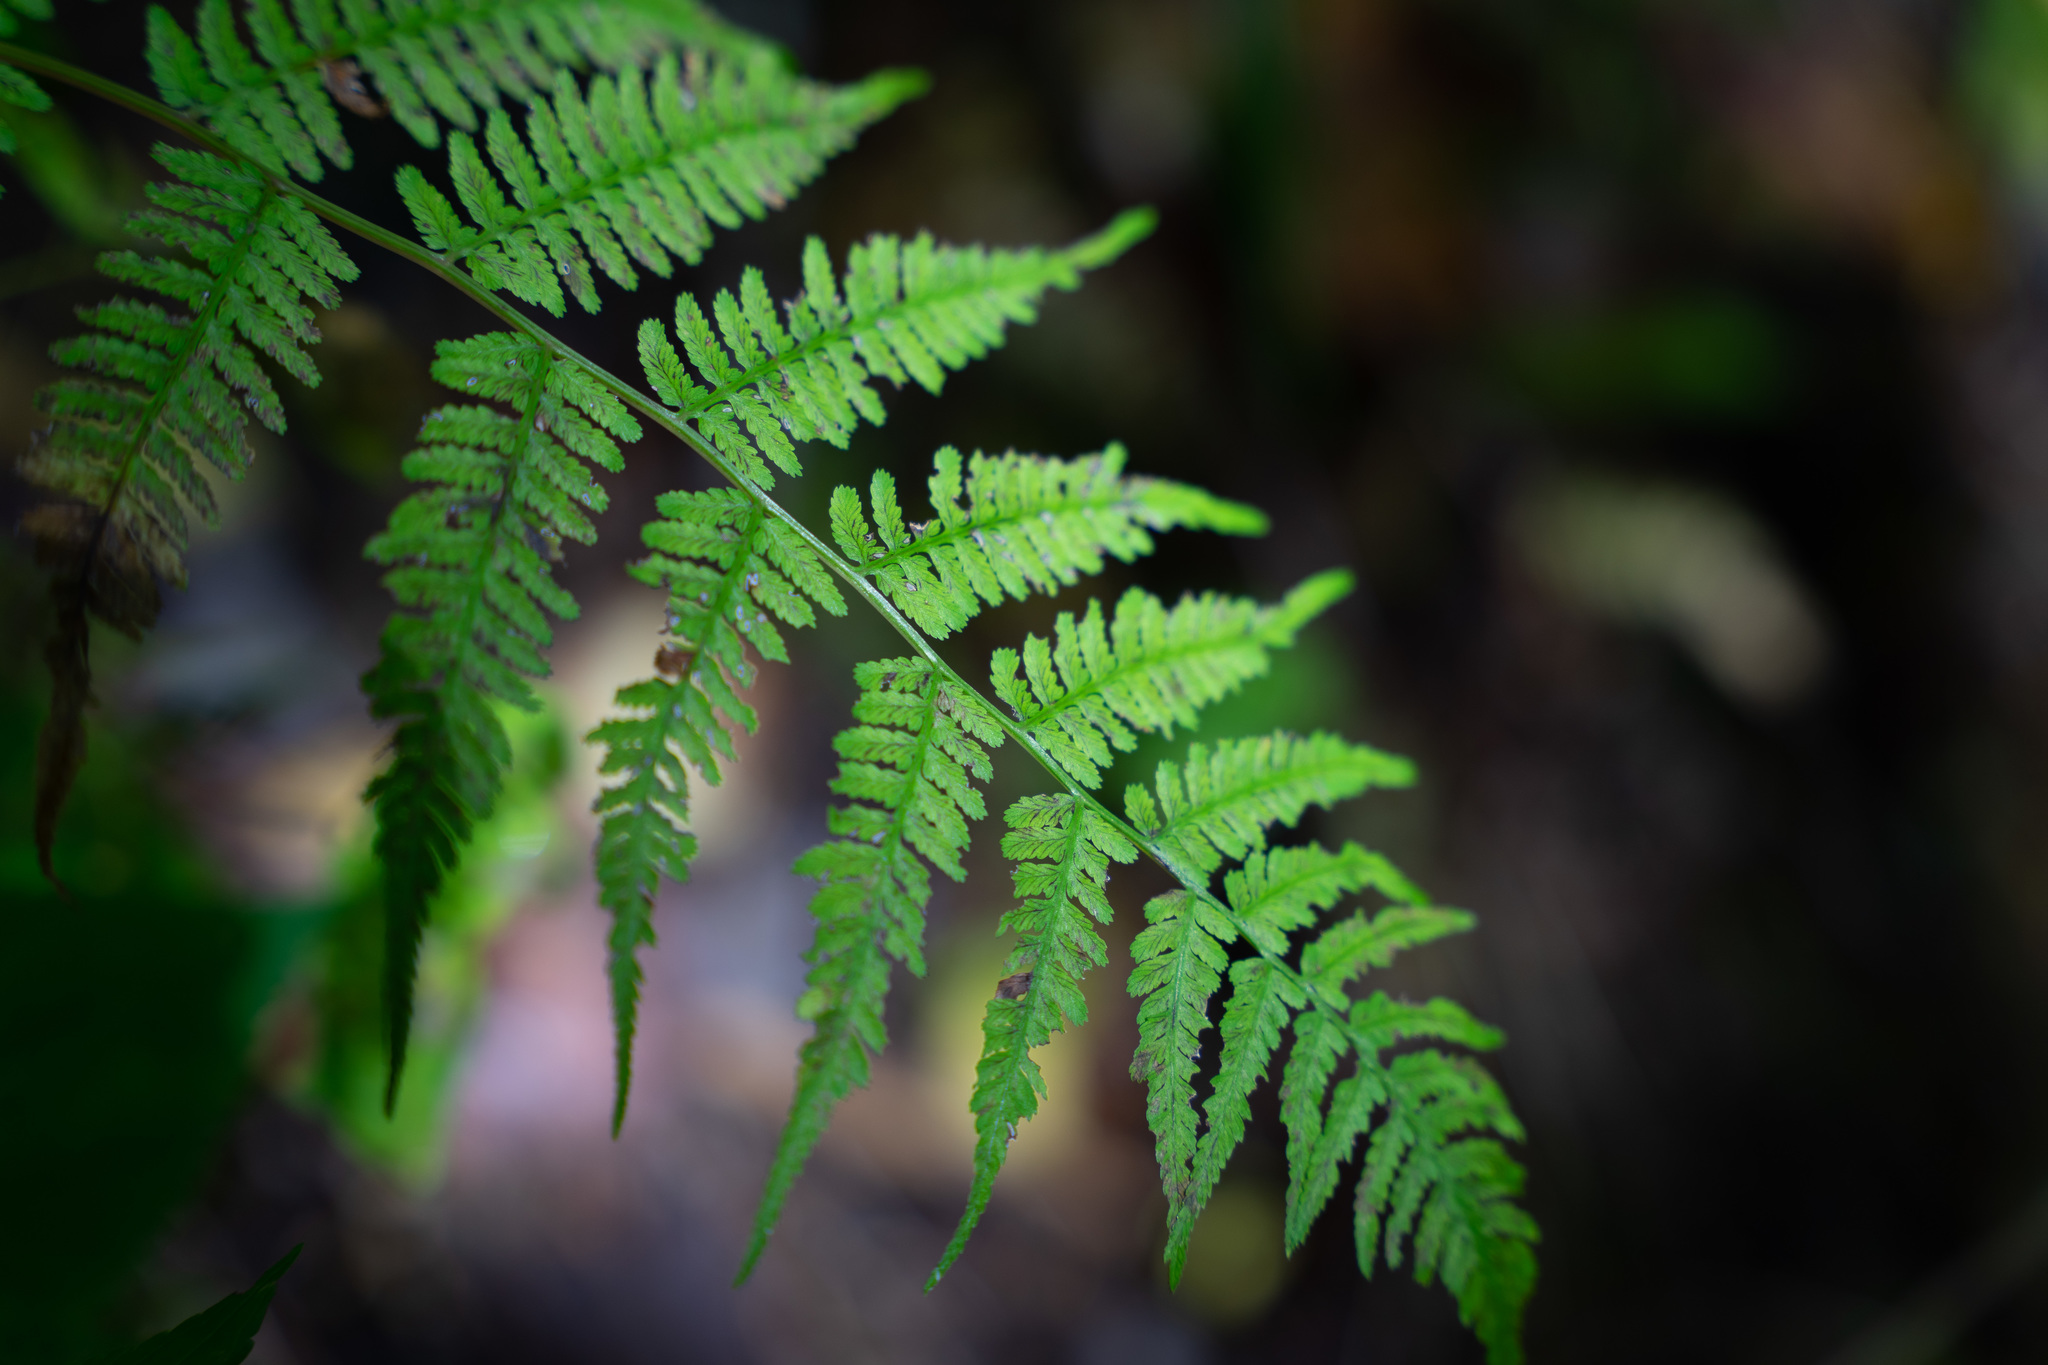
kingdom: Plantae
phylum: Tracheophyta
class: Polypodiopsida
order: Polypodiales
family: Athyriaceae
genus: Athyrium
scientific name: Athyrium asplenioides
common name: Southern lady fern
